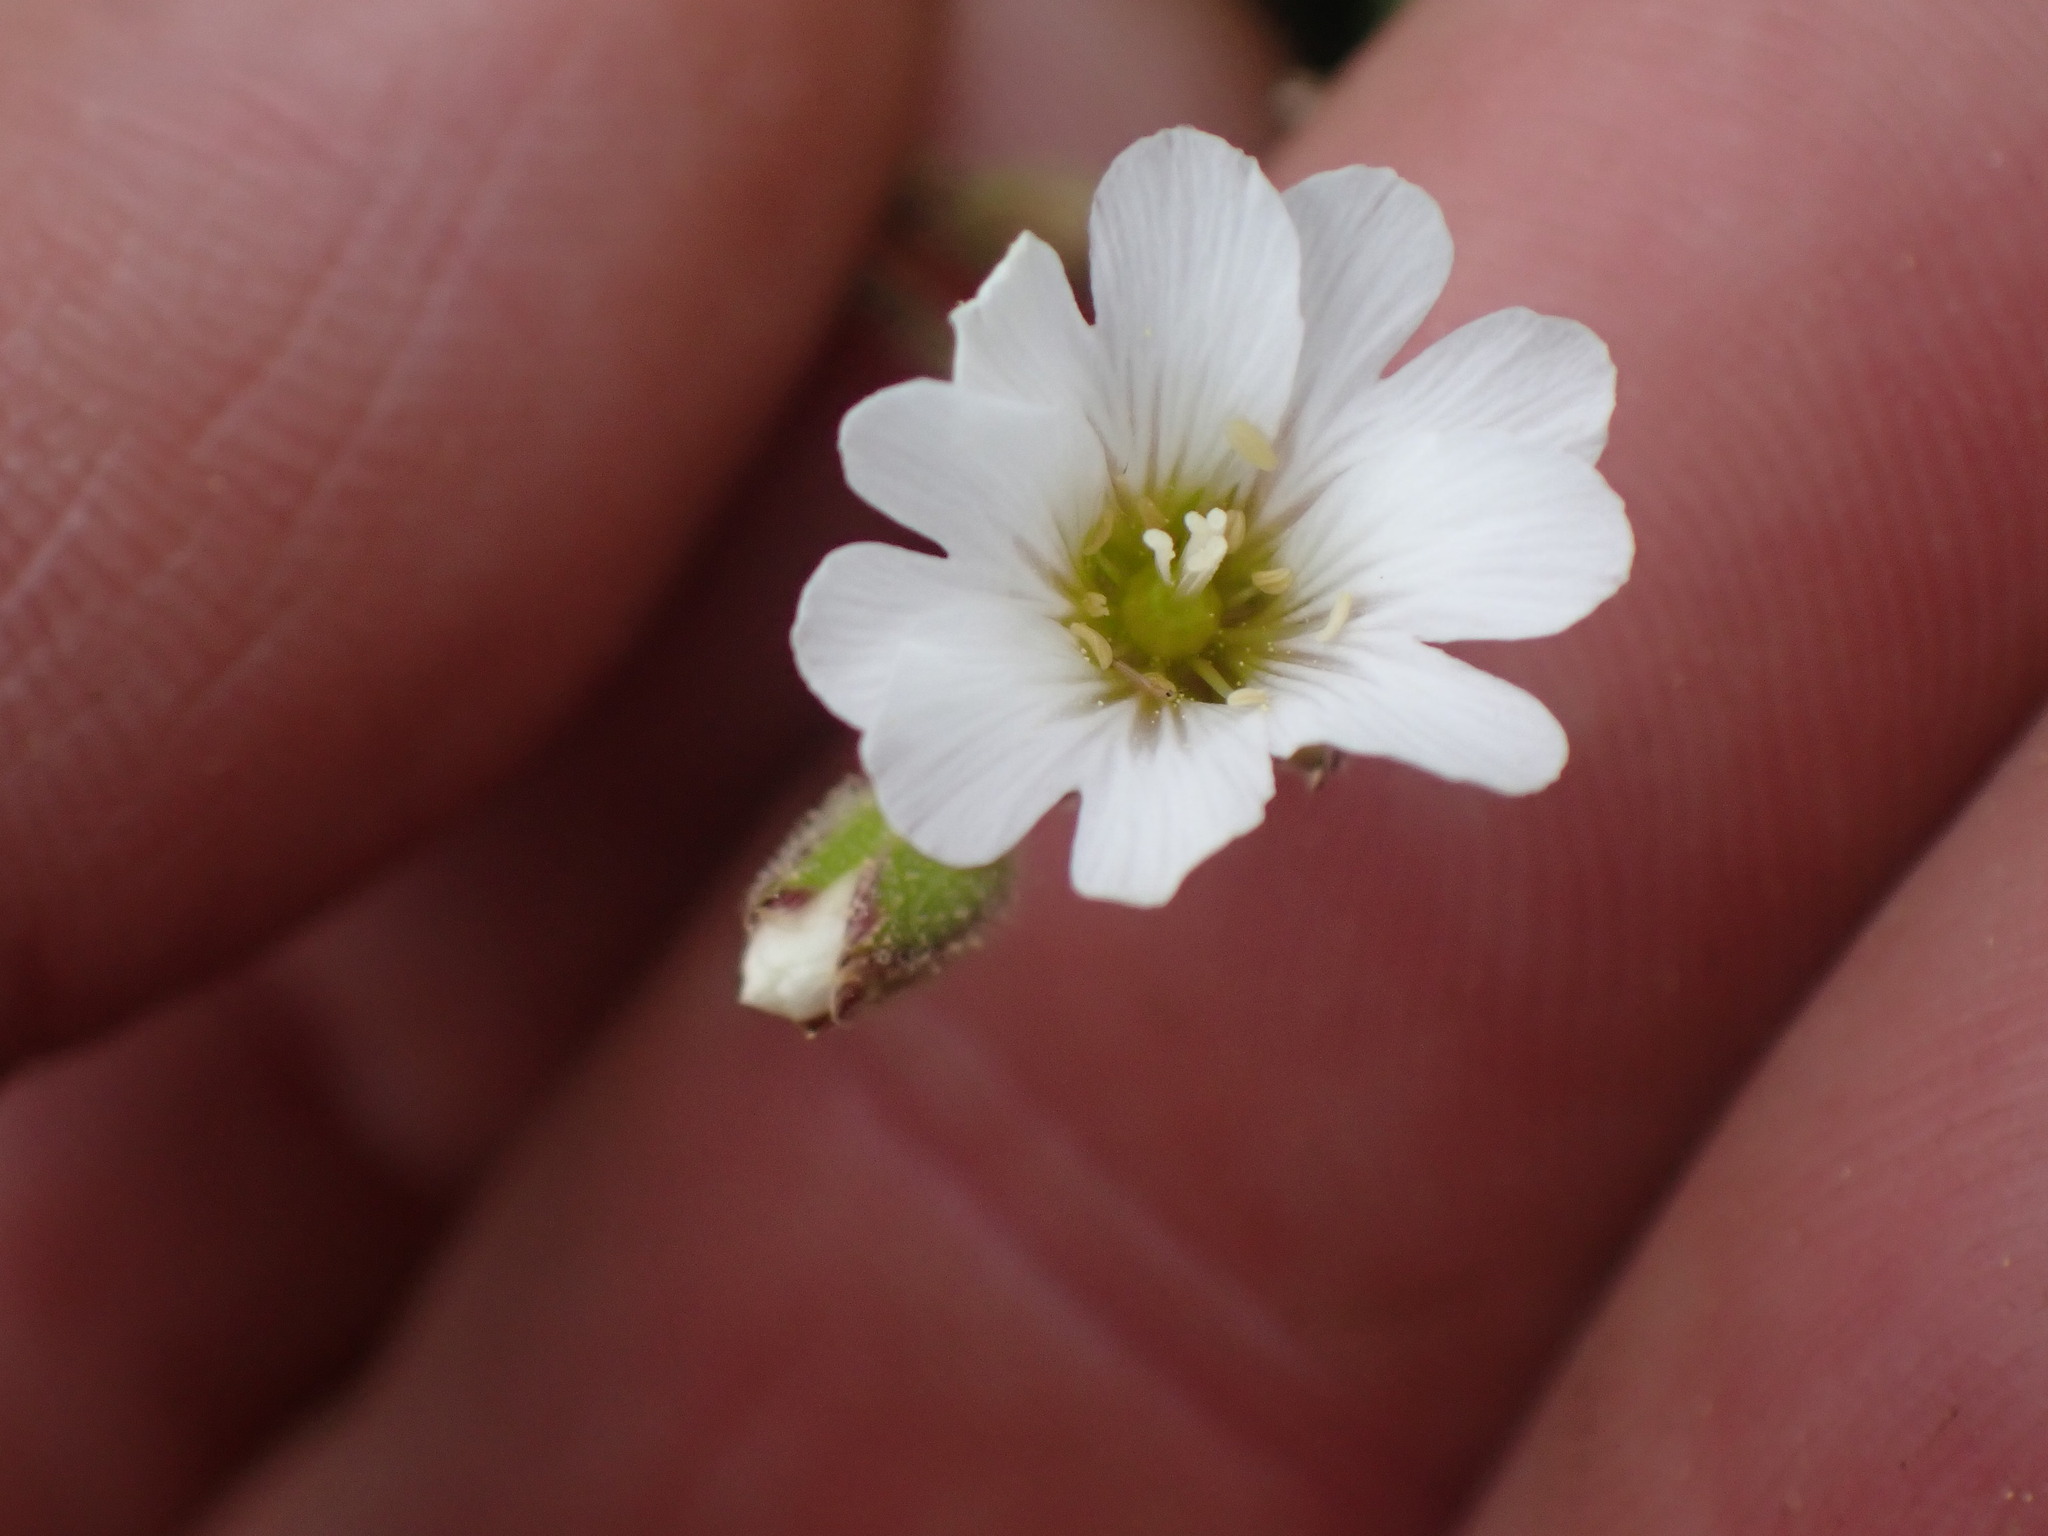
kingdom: Plantae
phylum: Tracheophyta
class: Magnoliopsida
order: Caryophyllales
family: Caryophyllaceae
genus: Cerastium
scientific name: Cerastium arvense
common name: Field mouse-ear
